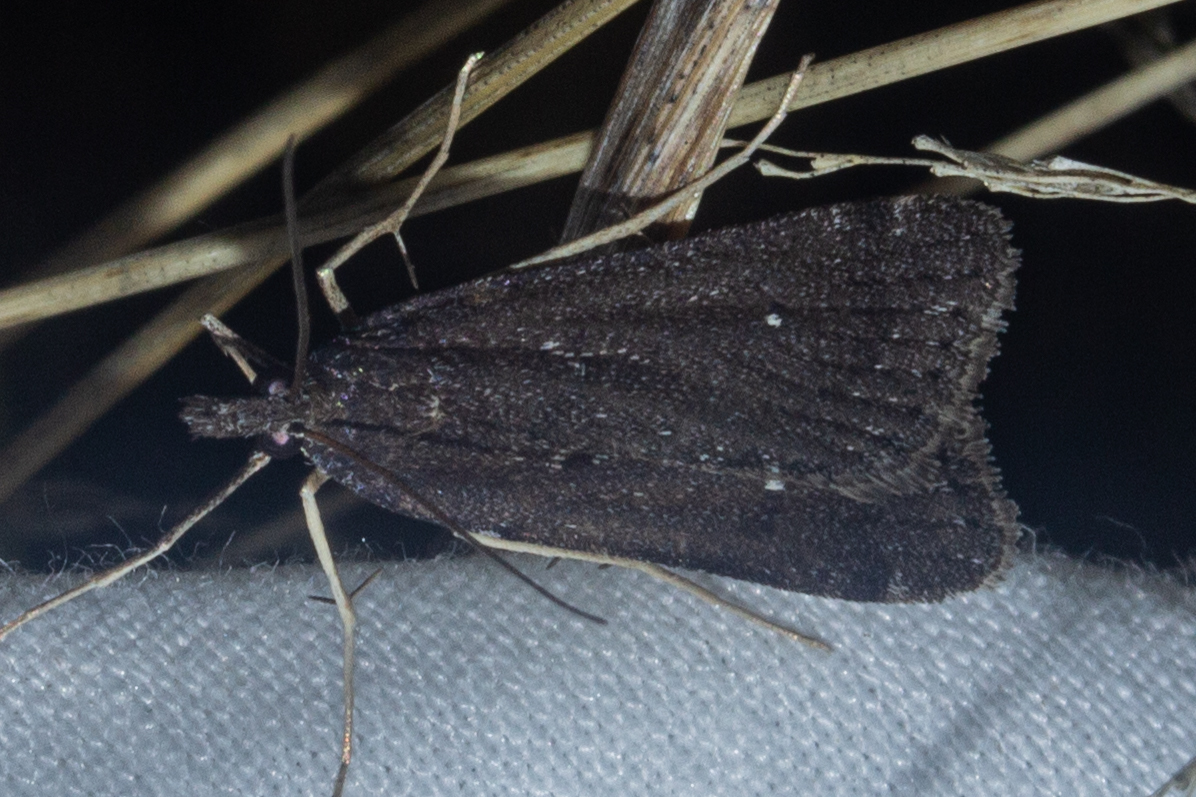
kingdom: Animalia
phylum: Arthropoda
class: Insecta
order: Lepidoptera
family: Crambidae
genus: Eudonia
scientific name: Eudonia oculata
